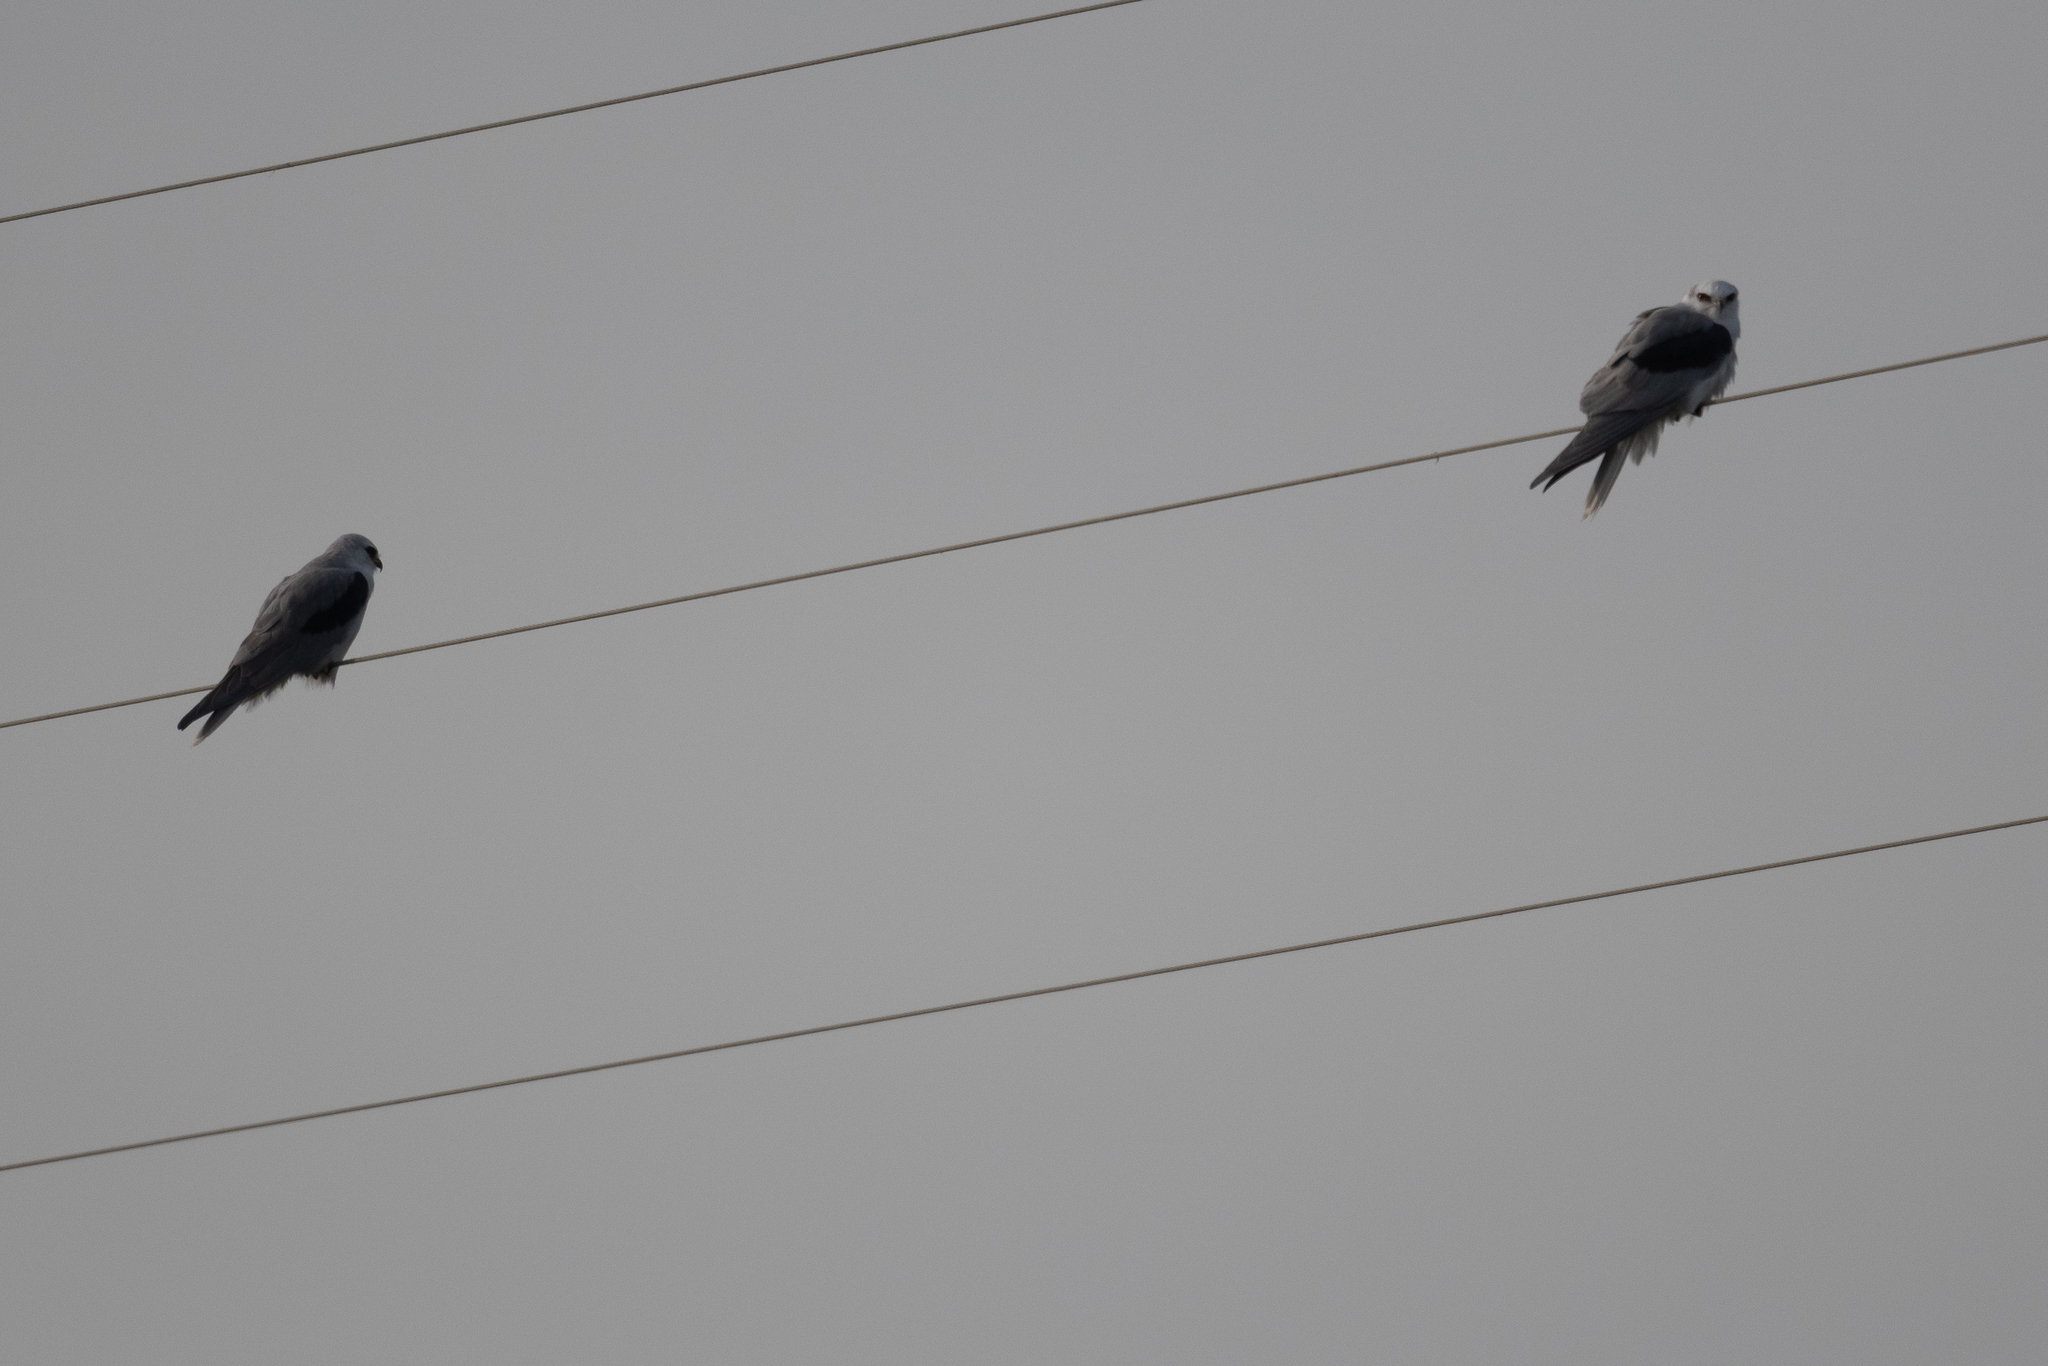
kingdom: Animalia
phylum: Chordata
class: Aves
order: Accipitriformes
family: Accipitridae
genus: Elanus
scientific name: Elanus leucurus
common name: White-tailed kite
